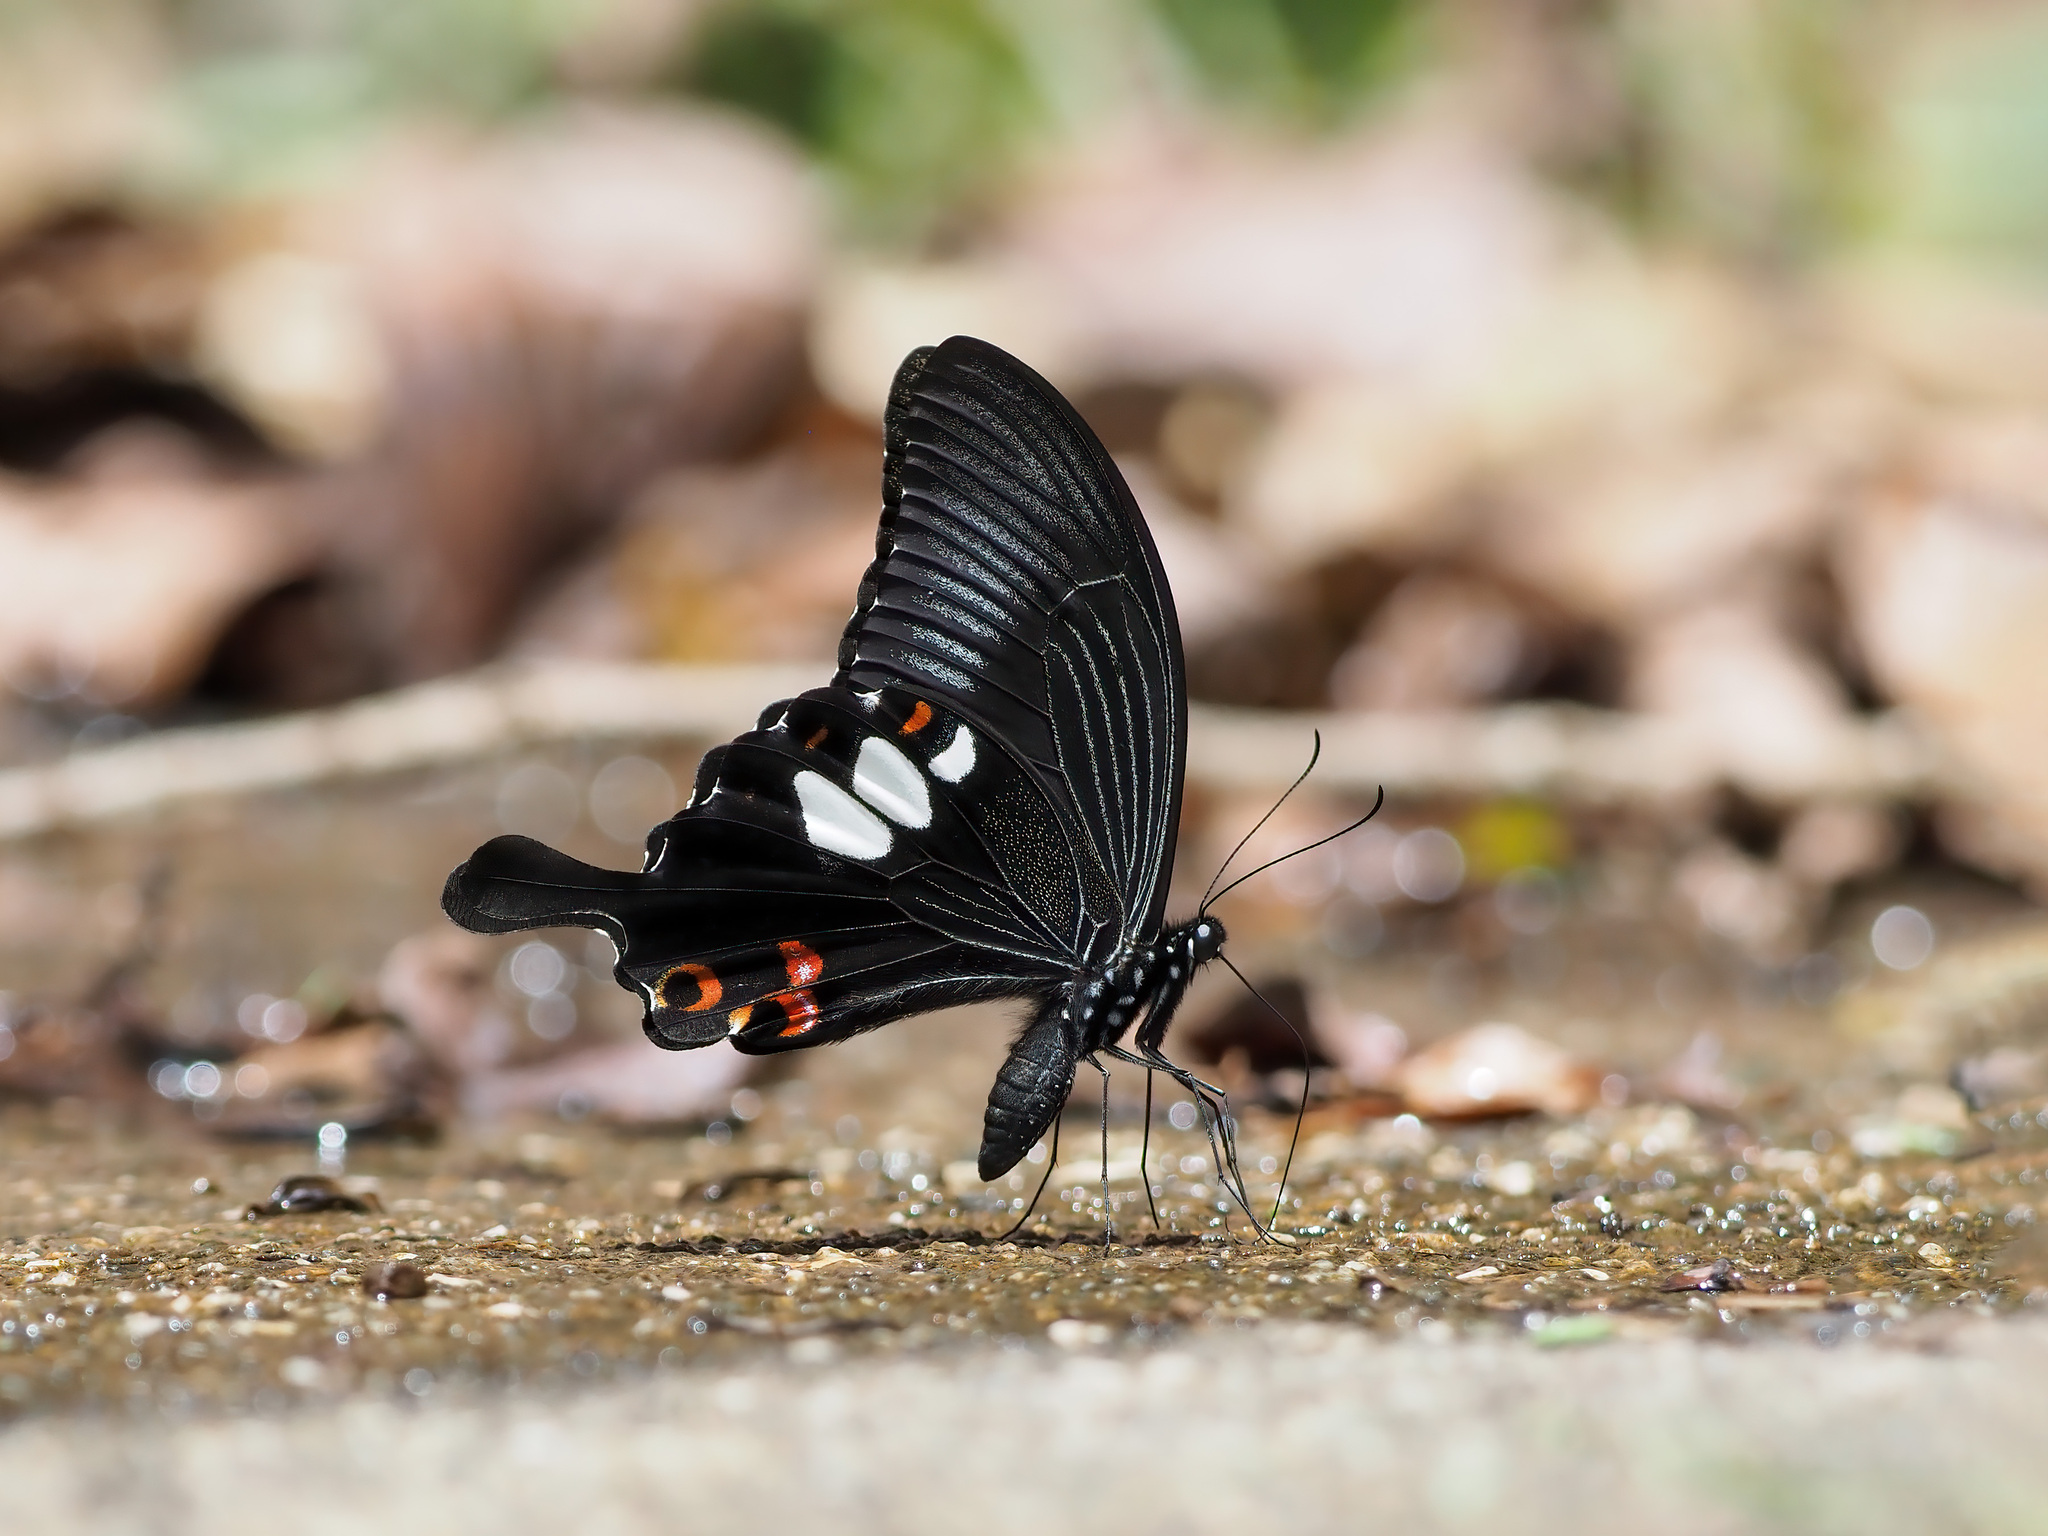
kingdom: Animalia
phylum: Arthropoda
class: Insecta
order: Lepidoptera
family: Papilionidae
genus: Papilio
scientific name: Papilio helenus
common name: Red helen
